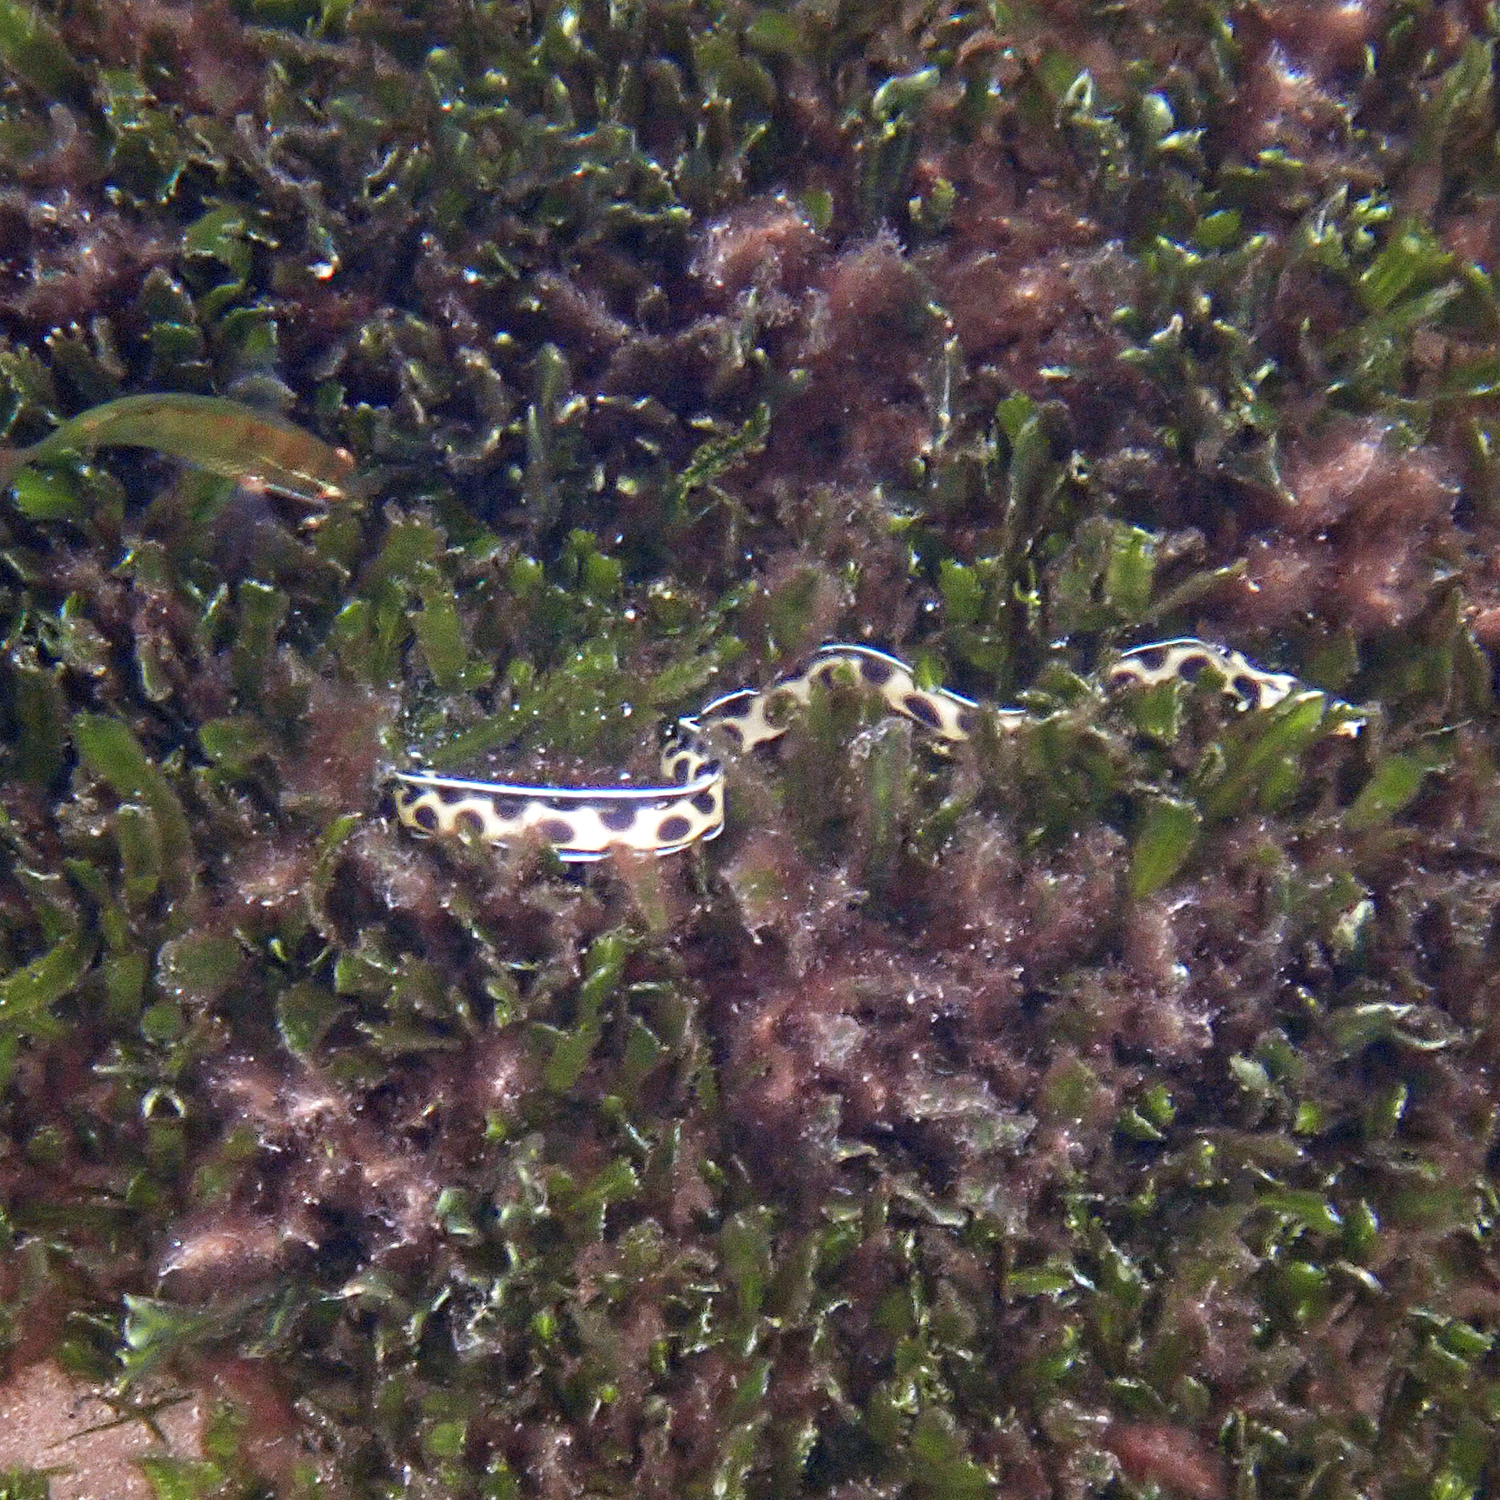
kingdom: Animalia
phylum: Chordata
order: Anguilliformes
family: Ophichthidae
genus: Myrichthys
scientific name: Myrichthys maculosus
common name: Spotted snake eel
